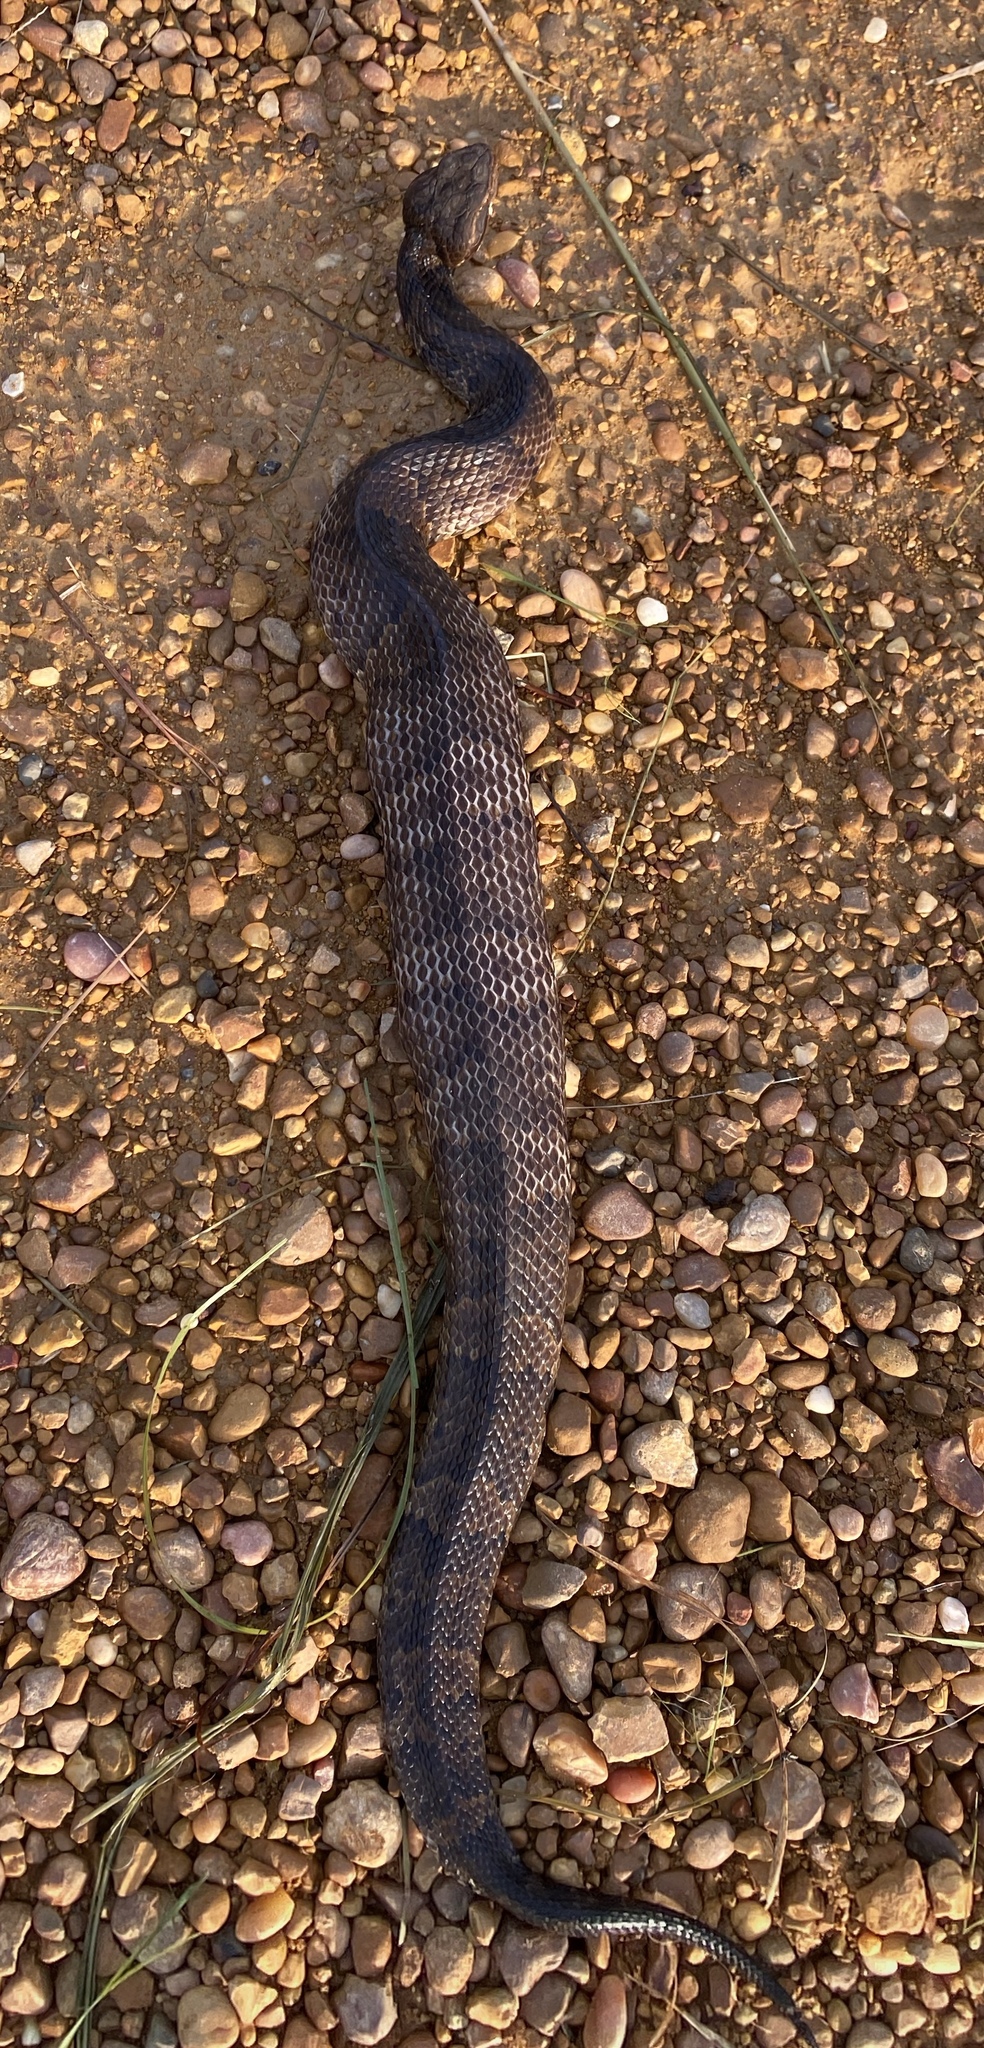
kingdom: Animalia
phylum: Chordata
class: Squamata
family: Viperidae
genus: Agkistrodon
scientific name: Agkistrodon piscivorus
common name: Cottonmouth
